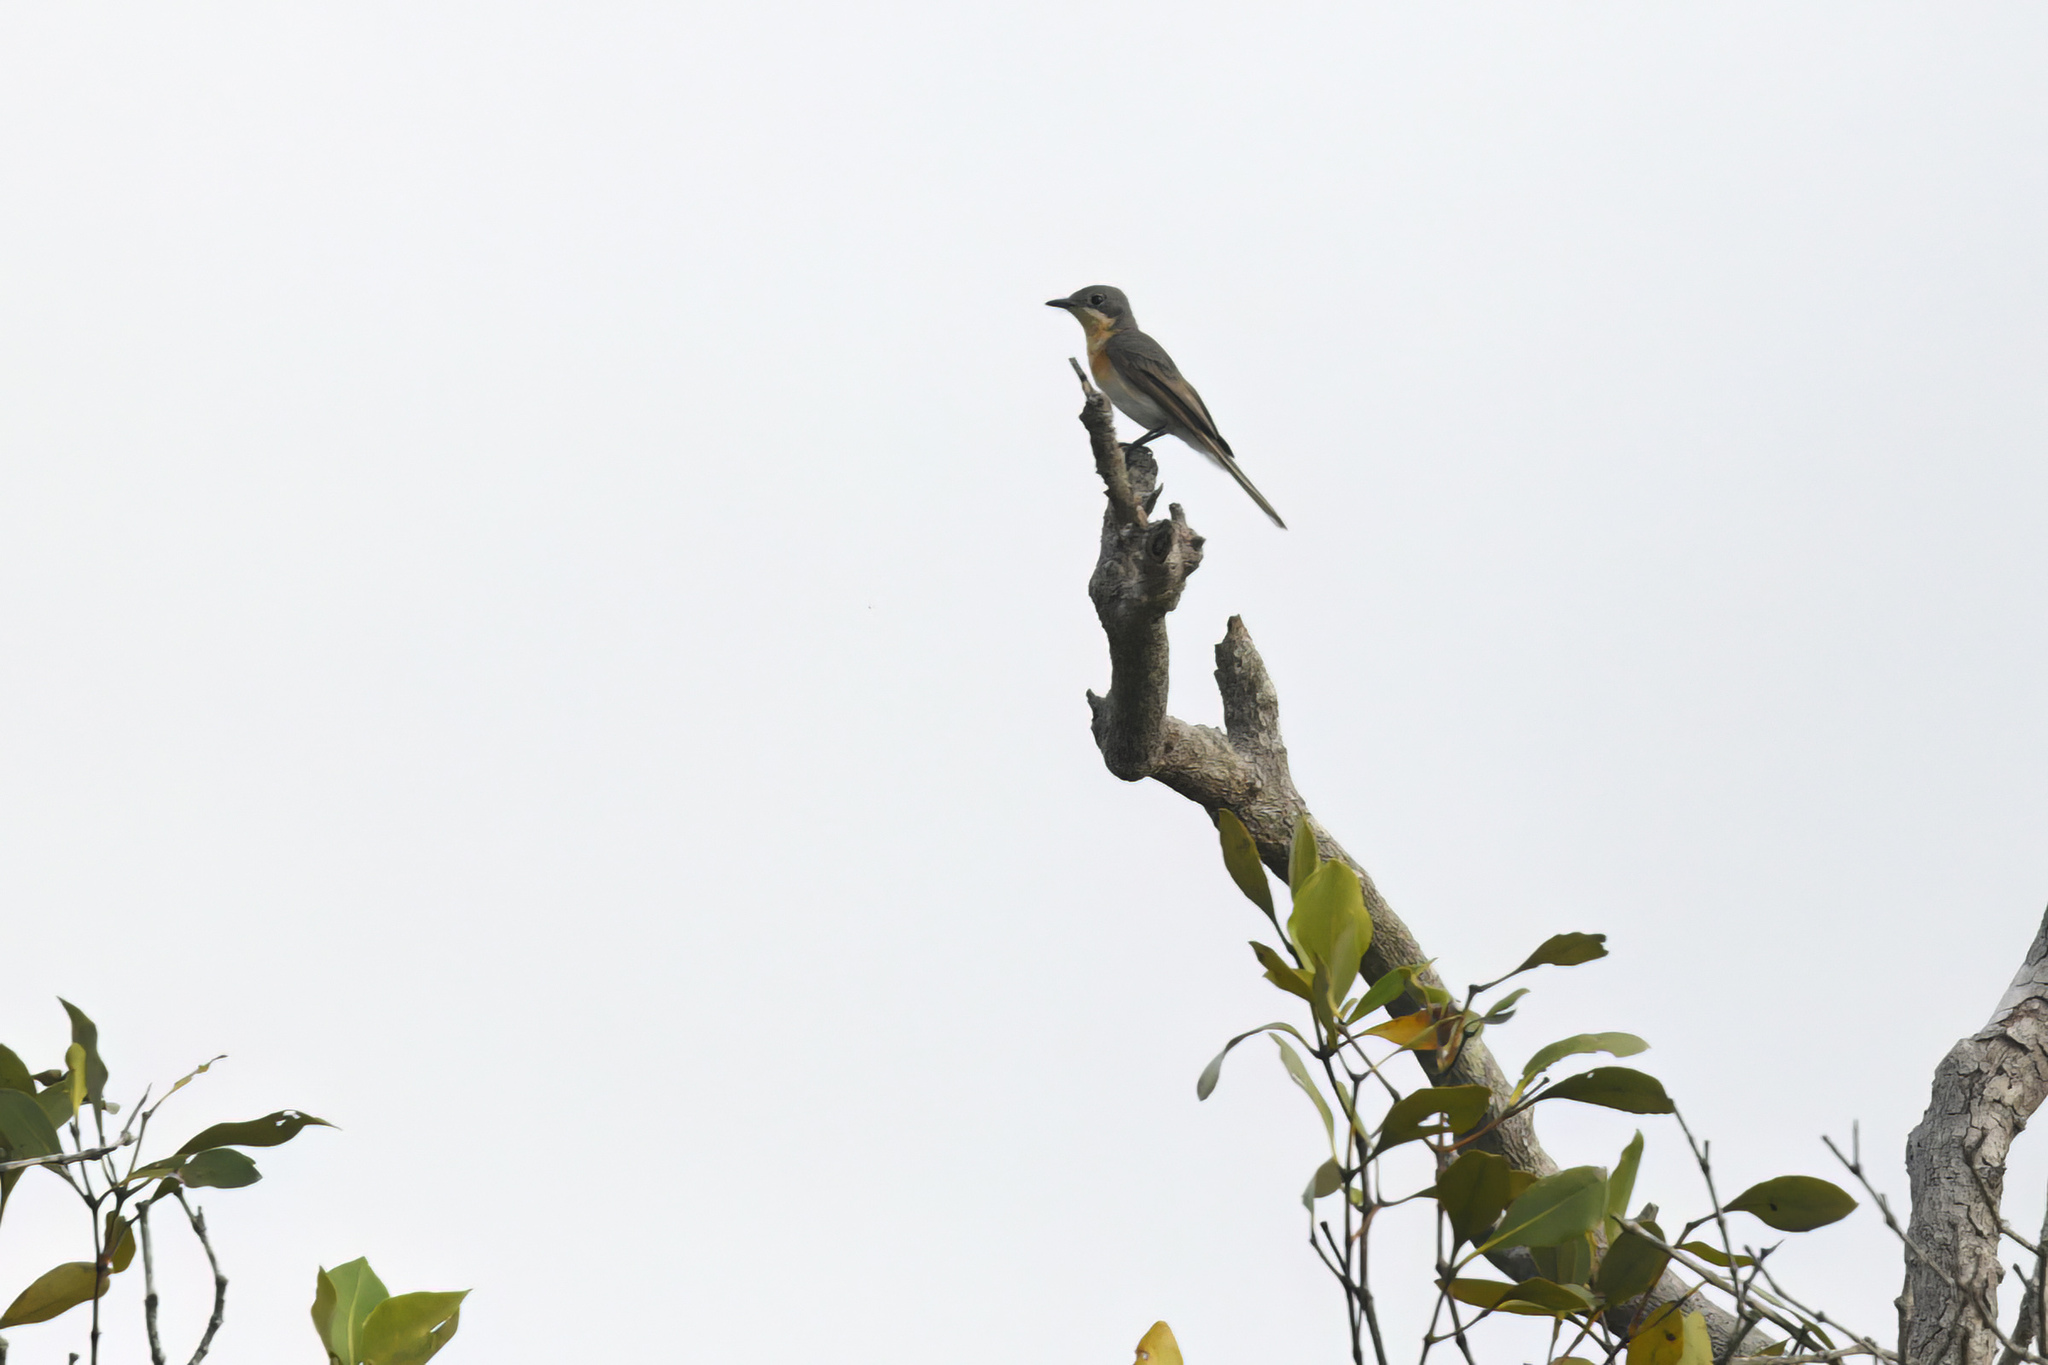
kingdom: Animalia
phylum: Chordata
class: Aves
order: Passeriformes
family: Monarchidae
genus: Myiagra
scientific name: Myiagra rubecula
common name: Leaden flycatcher
